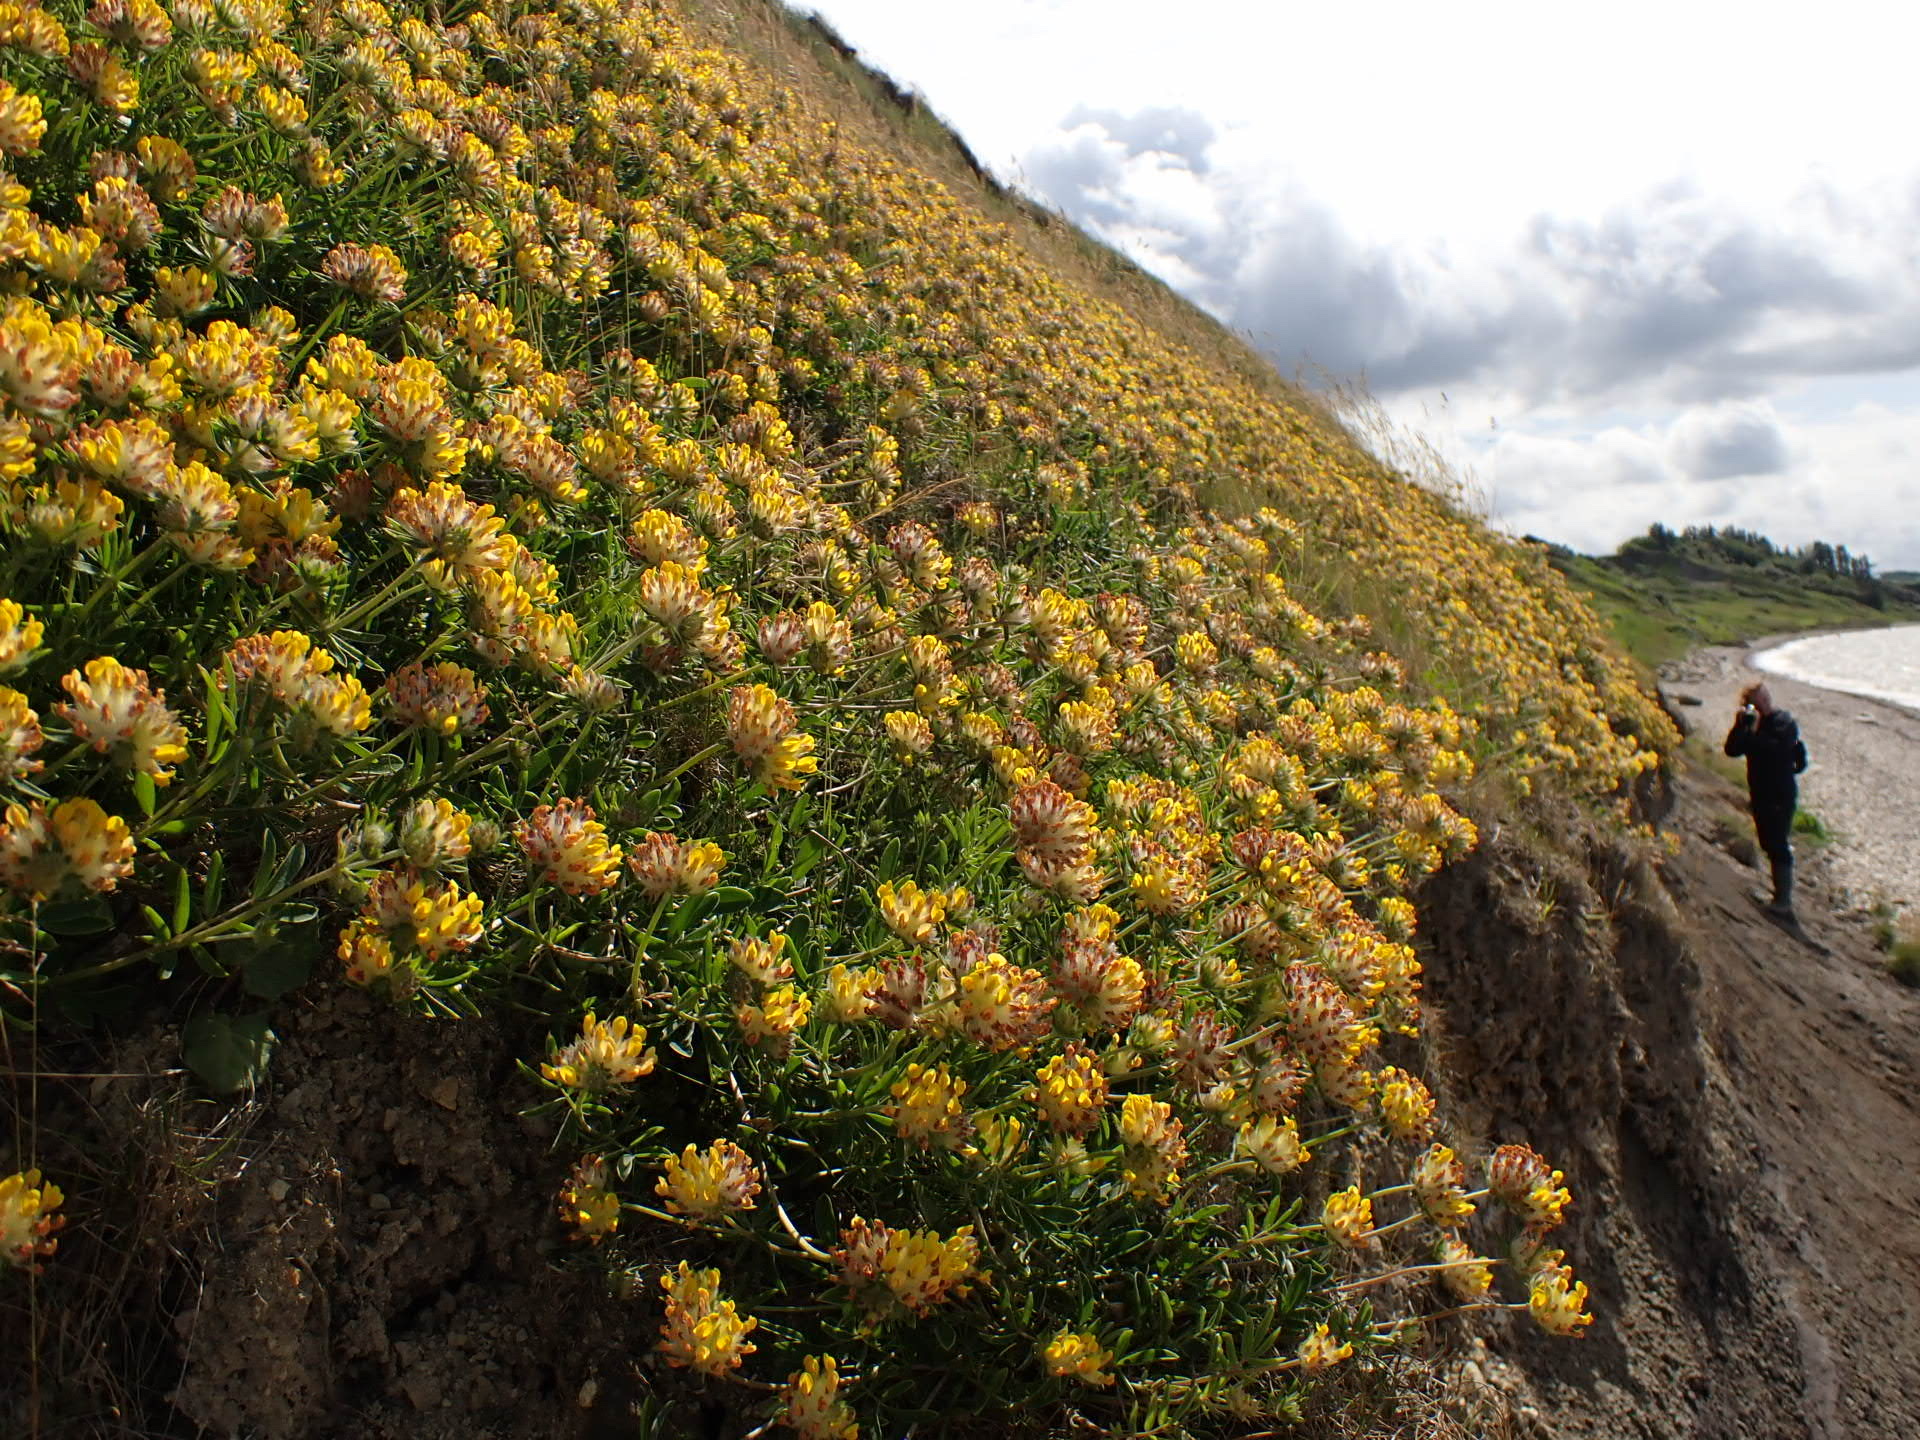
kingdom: Plantae
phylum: Tracheophyta
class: Magnoliopsida
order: Fabales
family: Fabaceae
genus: Anthyllis
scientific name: Anthyllis vulneraria
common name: Kidney vetch
